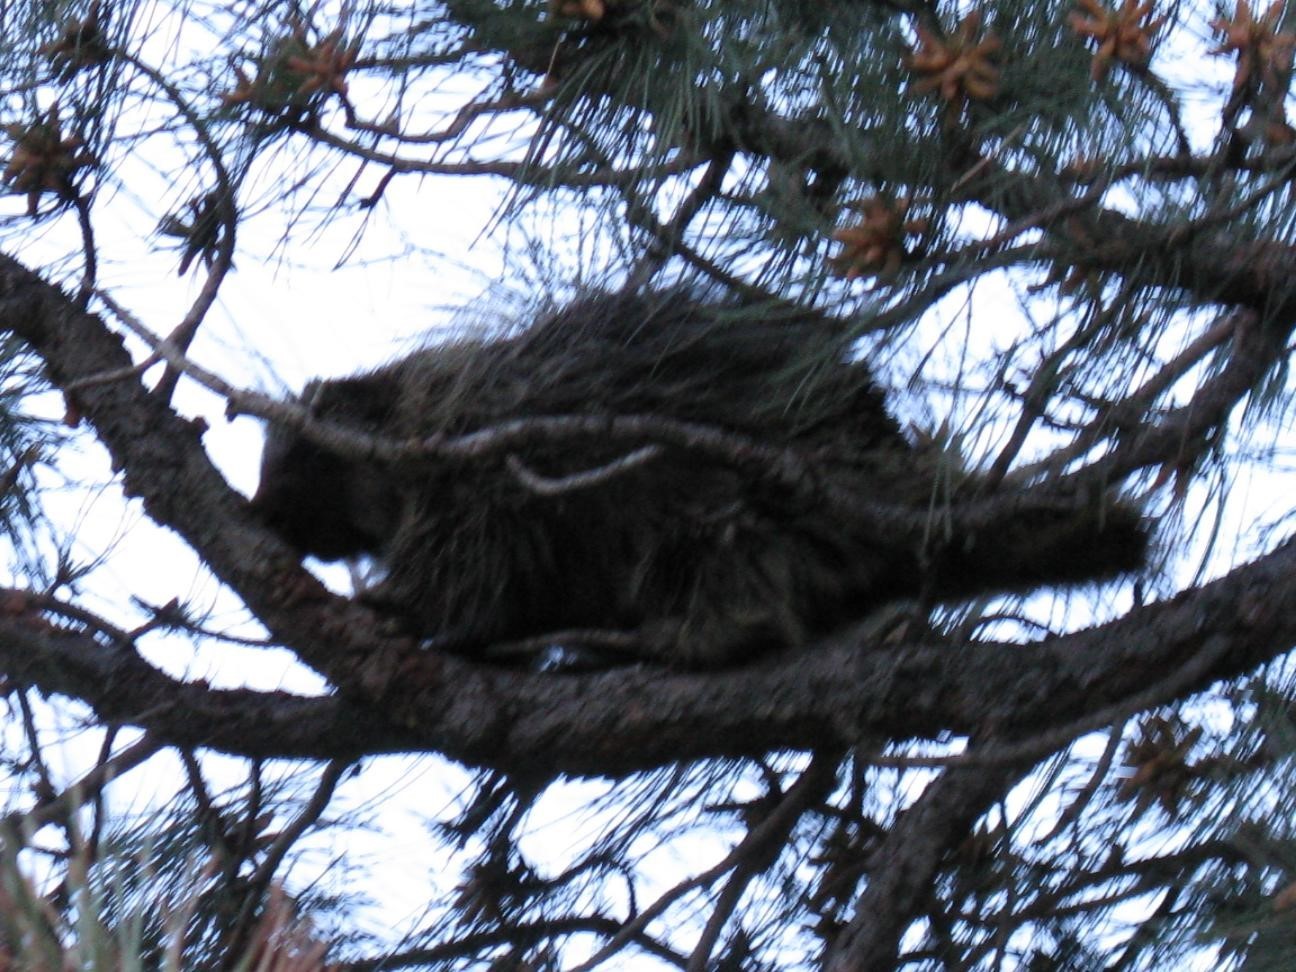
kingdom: Animalia
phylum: Chordata
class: Mammalia
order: Rodentia
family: Erethizontidae
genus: Erethizon
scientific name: Erethizon dorsatus
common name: North american porcupine
